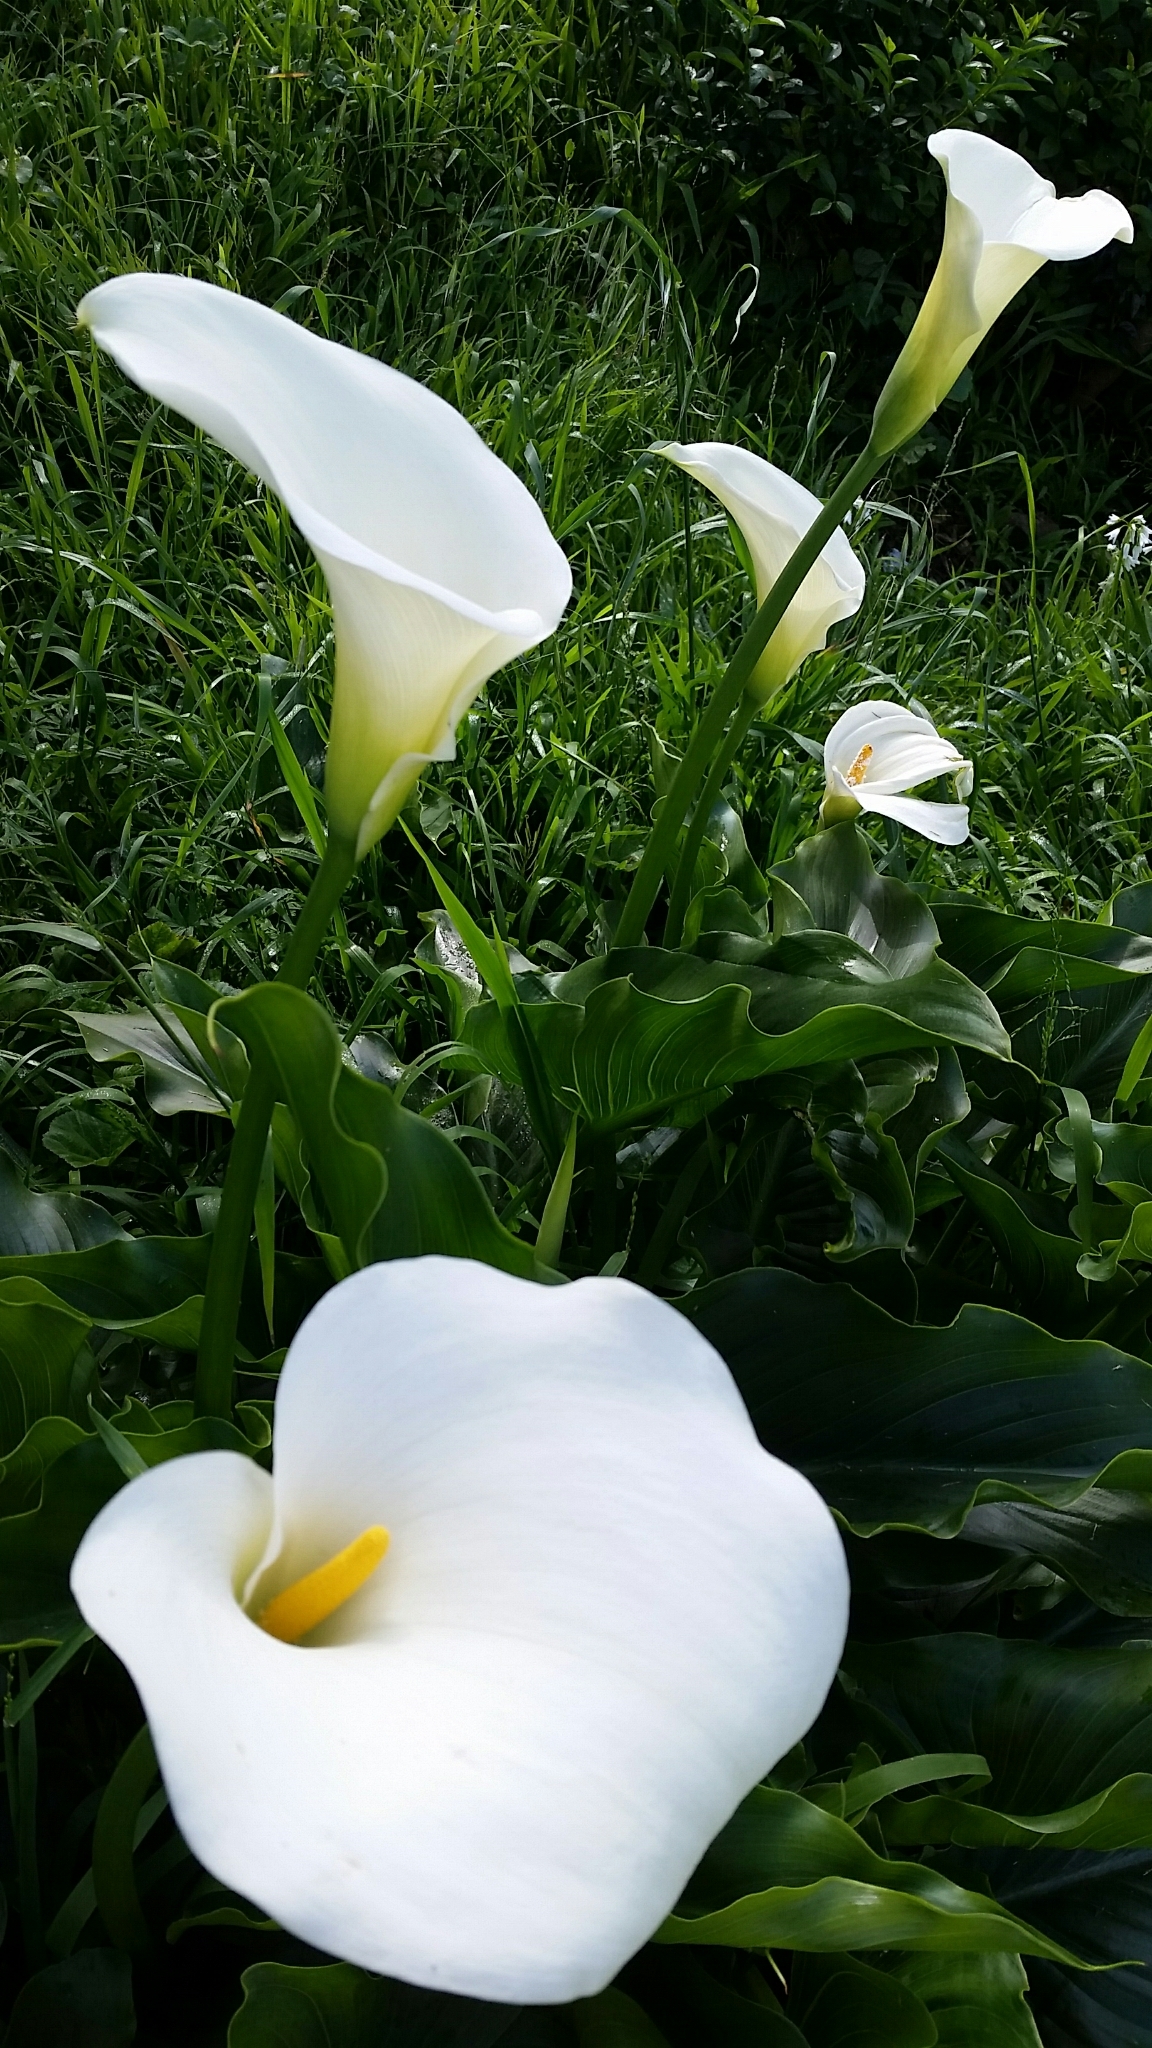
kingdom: Plantae
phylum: Tracheophyta
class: Liliopsida
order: Alismatales
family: Araceae
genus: Zantedeschia
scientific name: Zantedeschia aethiopica
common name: Altar-lily
